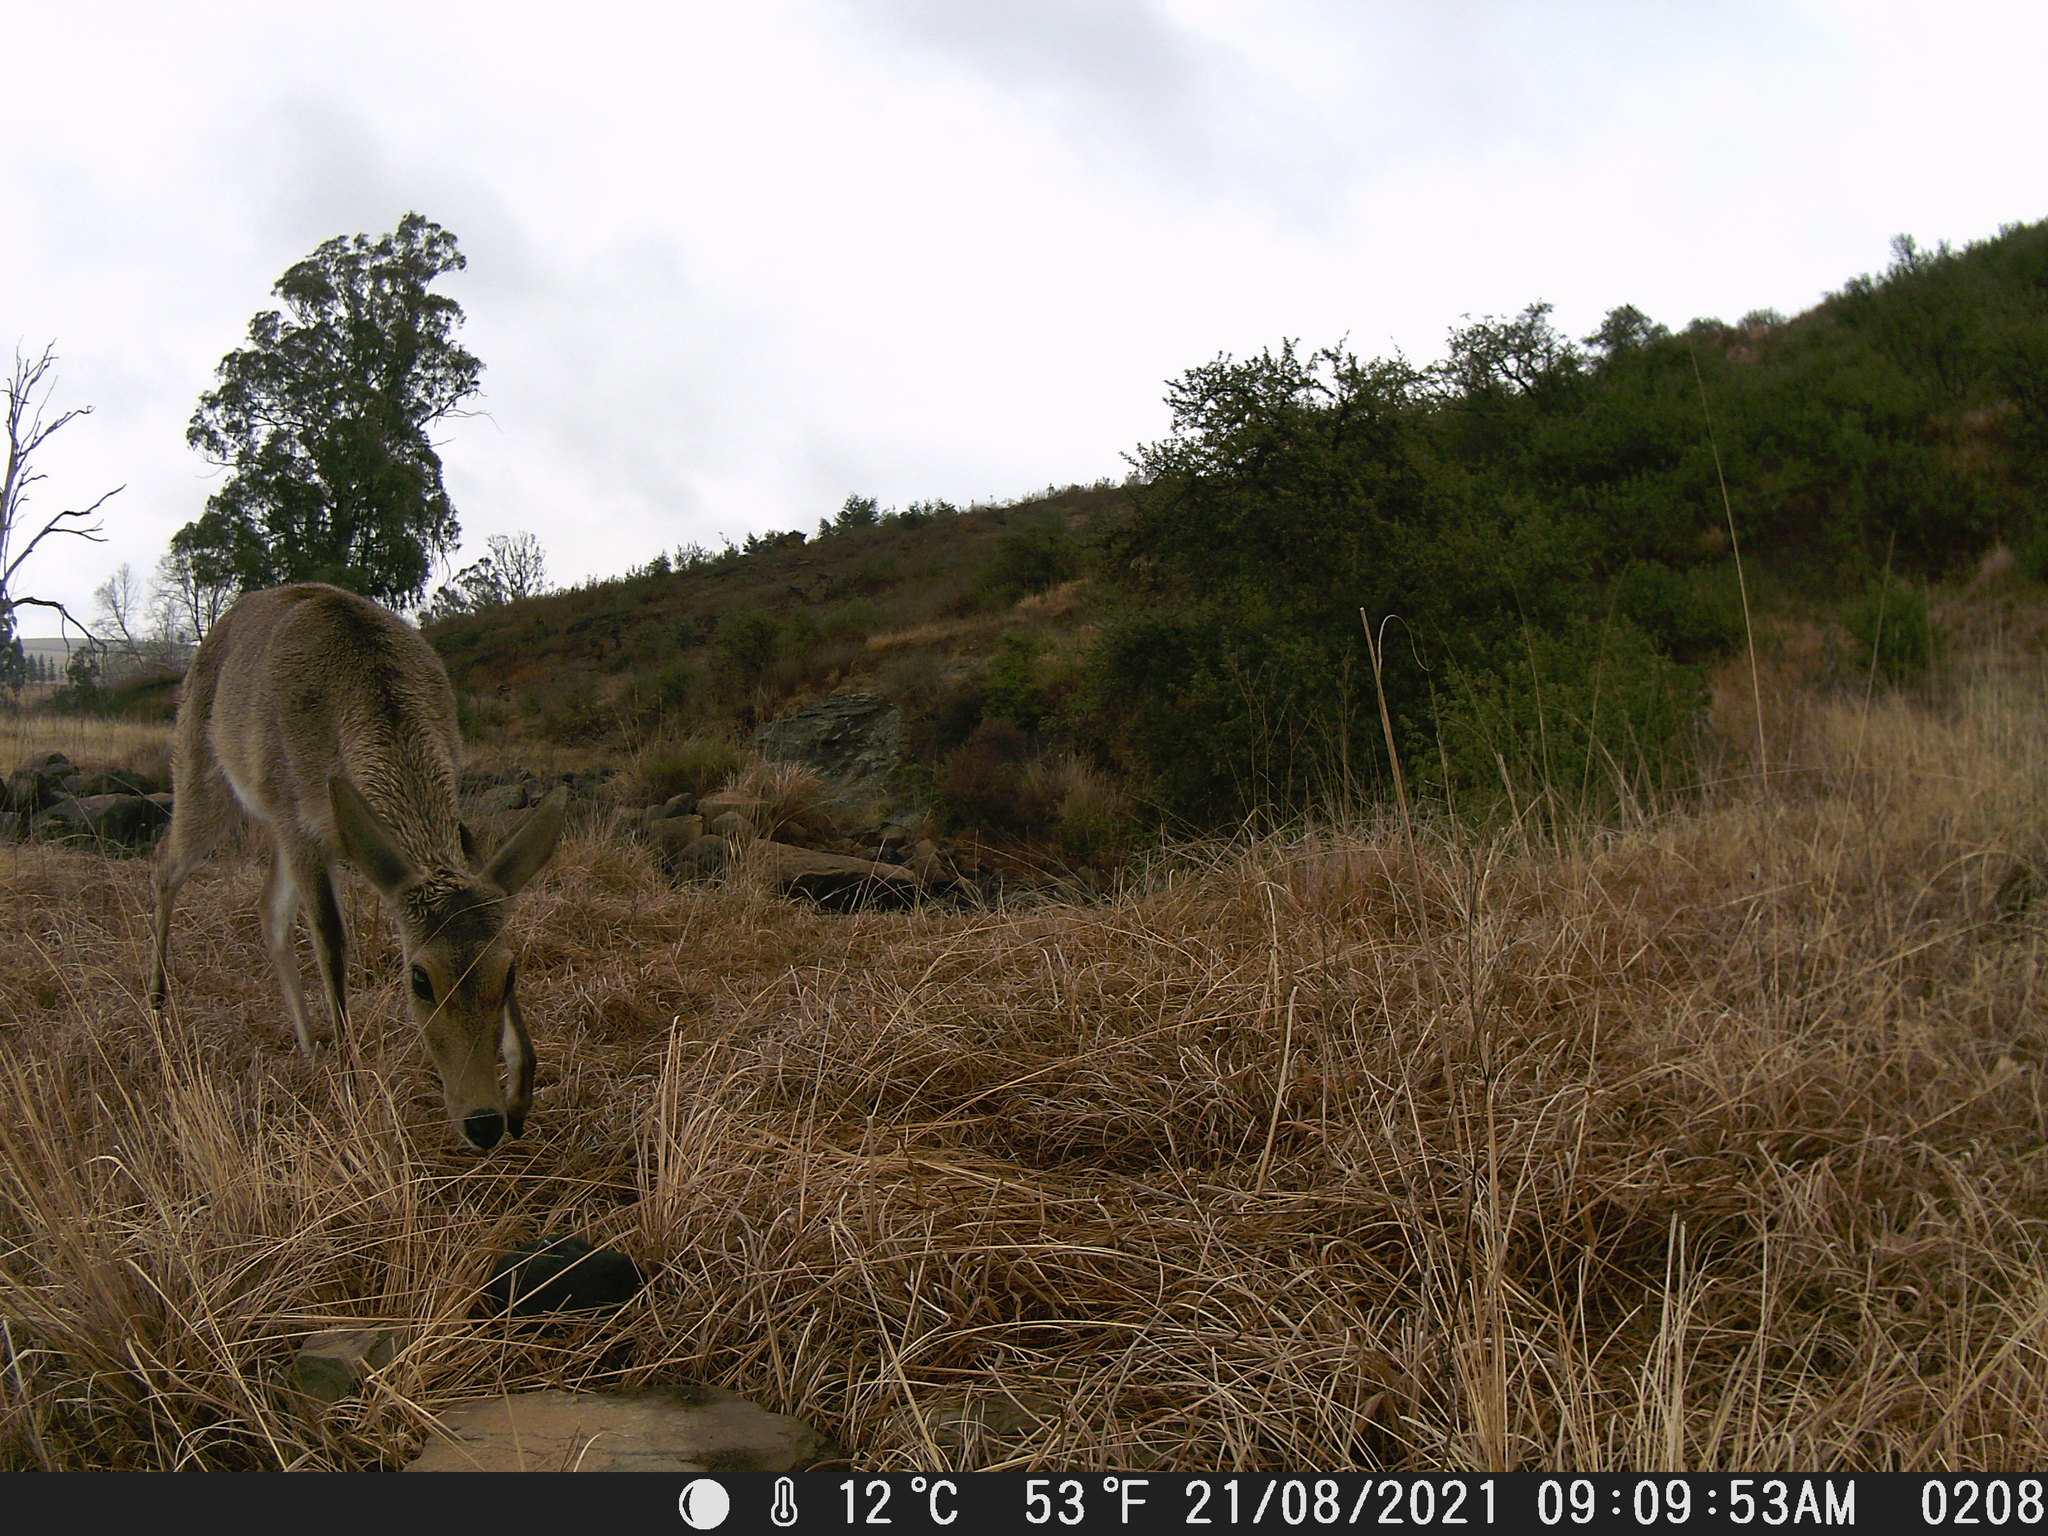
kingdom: Animalia
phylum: Chordata
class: Mammalia
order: Artiodactyla
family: Bovidae
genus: Redunca
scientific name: Redunca arundinum
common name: Southern reedbuck
